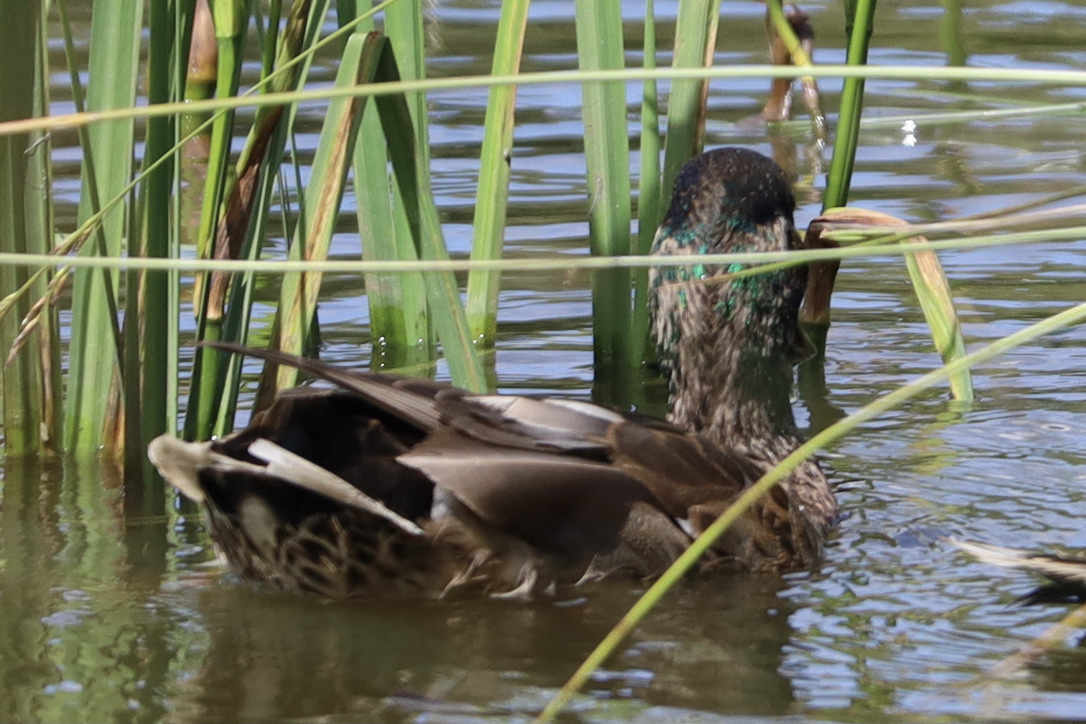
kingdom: Animalia
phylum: Chordata
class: Aves
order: Anseriformes
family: Anatidae
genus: Anas
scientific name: Anas platyrhynchos
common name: Mallard
